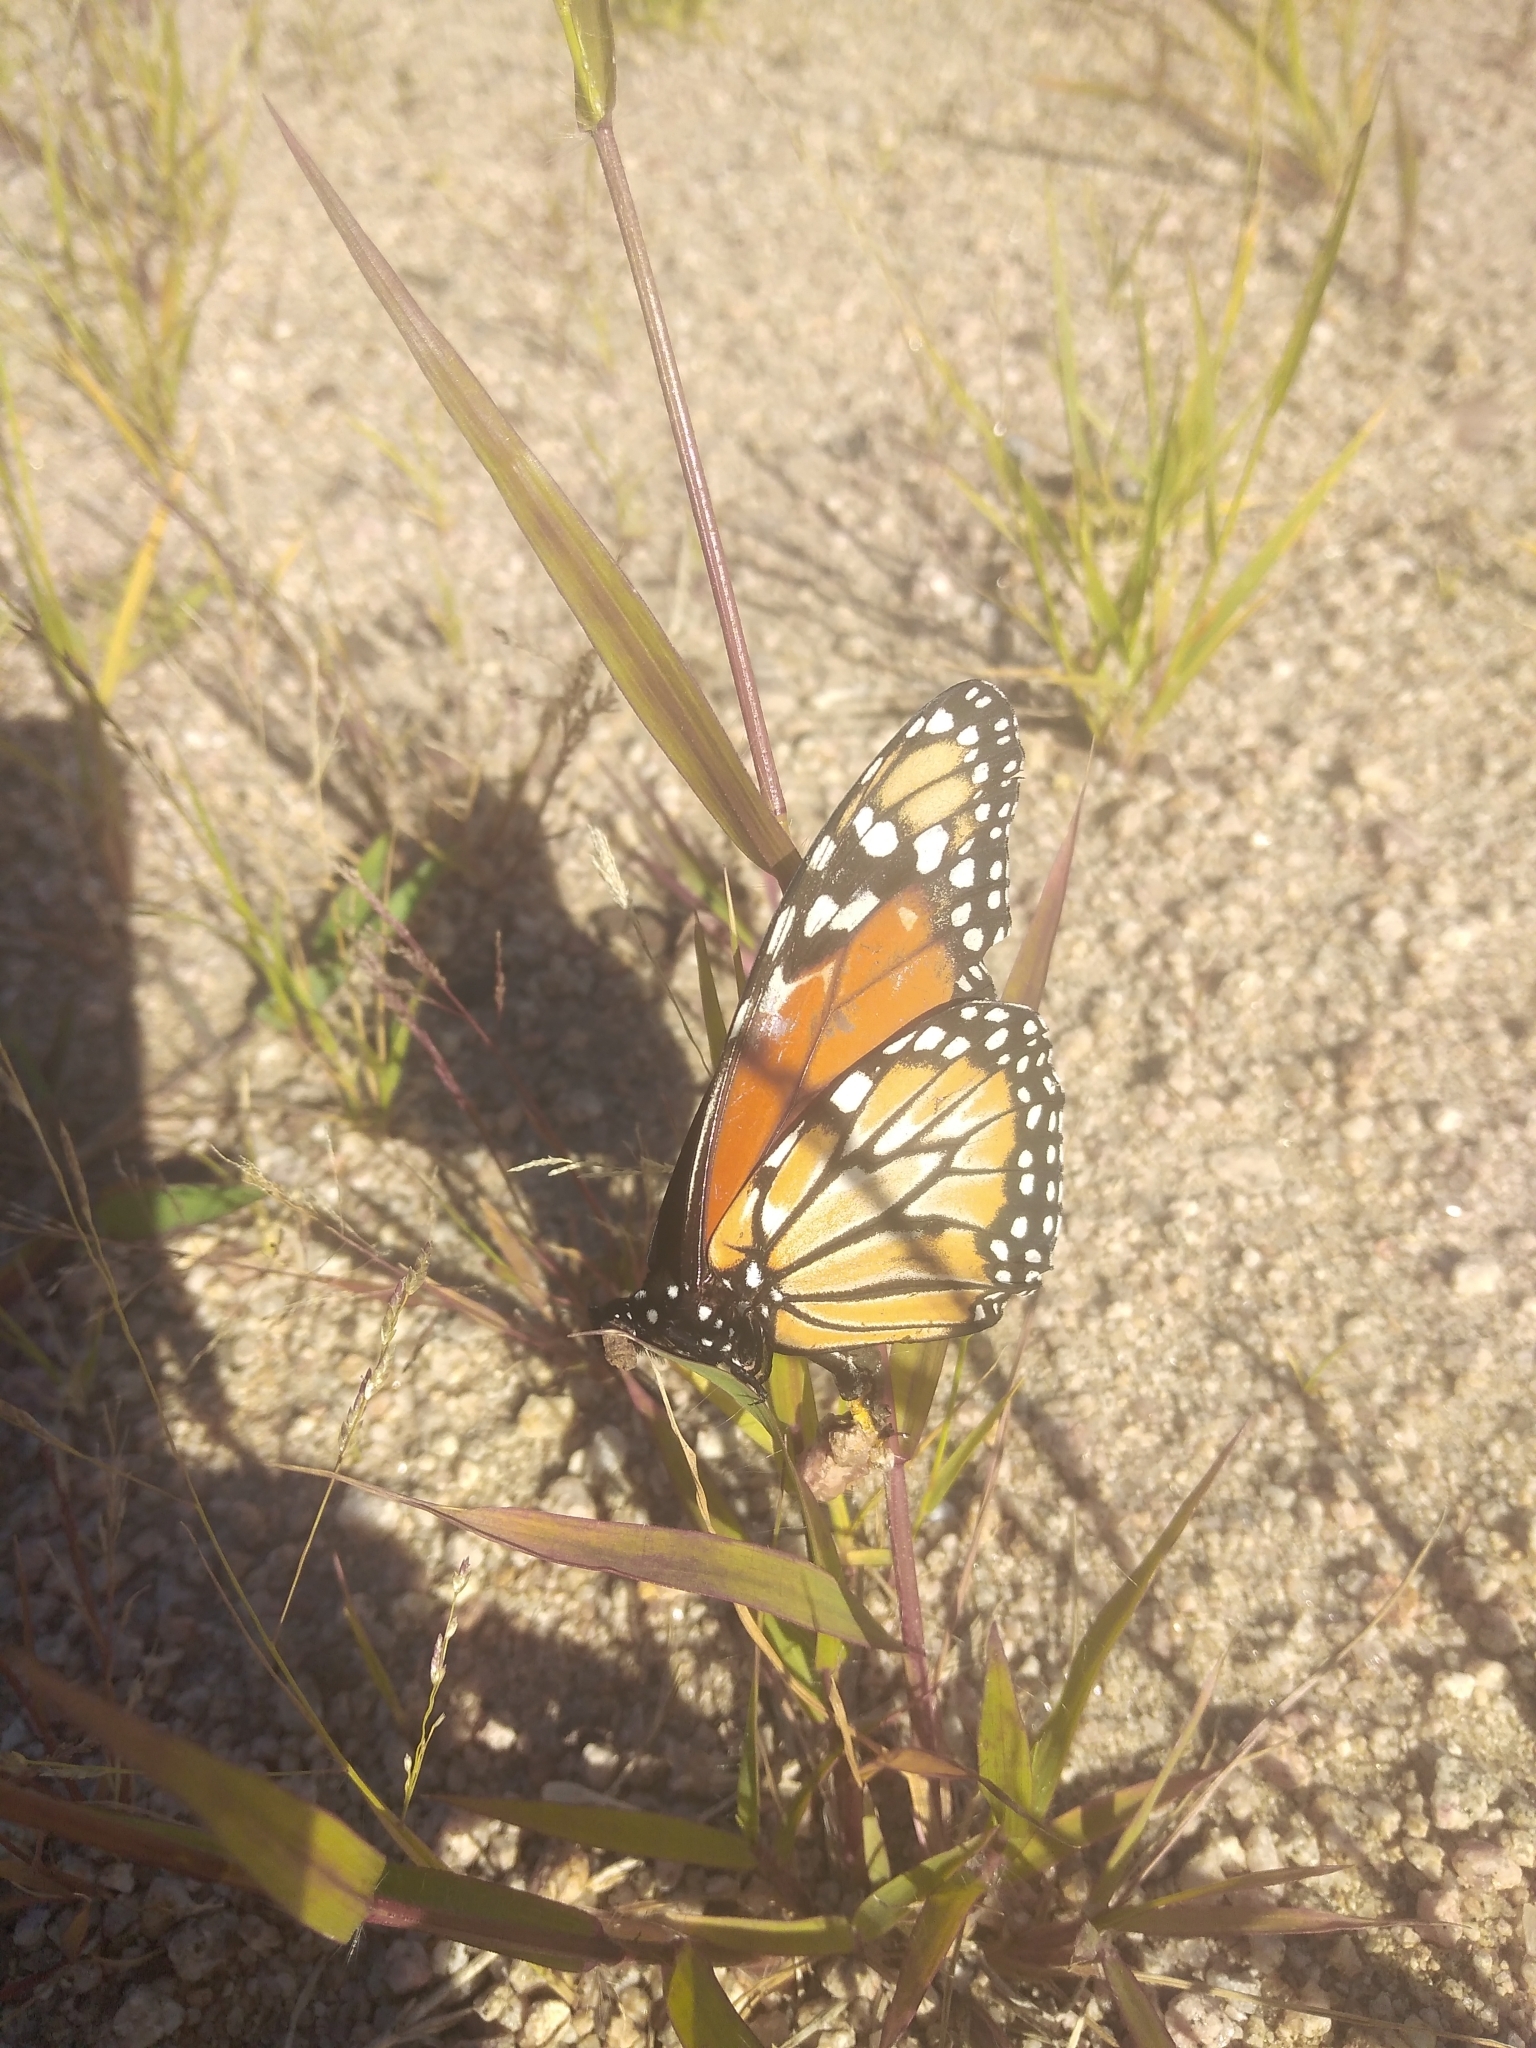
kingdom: Animalia
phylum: Arthropoda
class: Insecta
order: Lepidoptera
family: Nymphalidae
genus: Danaus
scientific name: Danaus erippus
